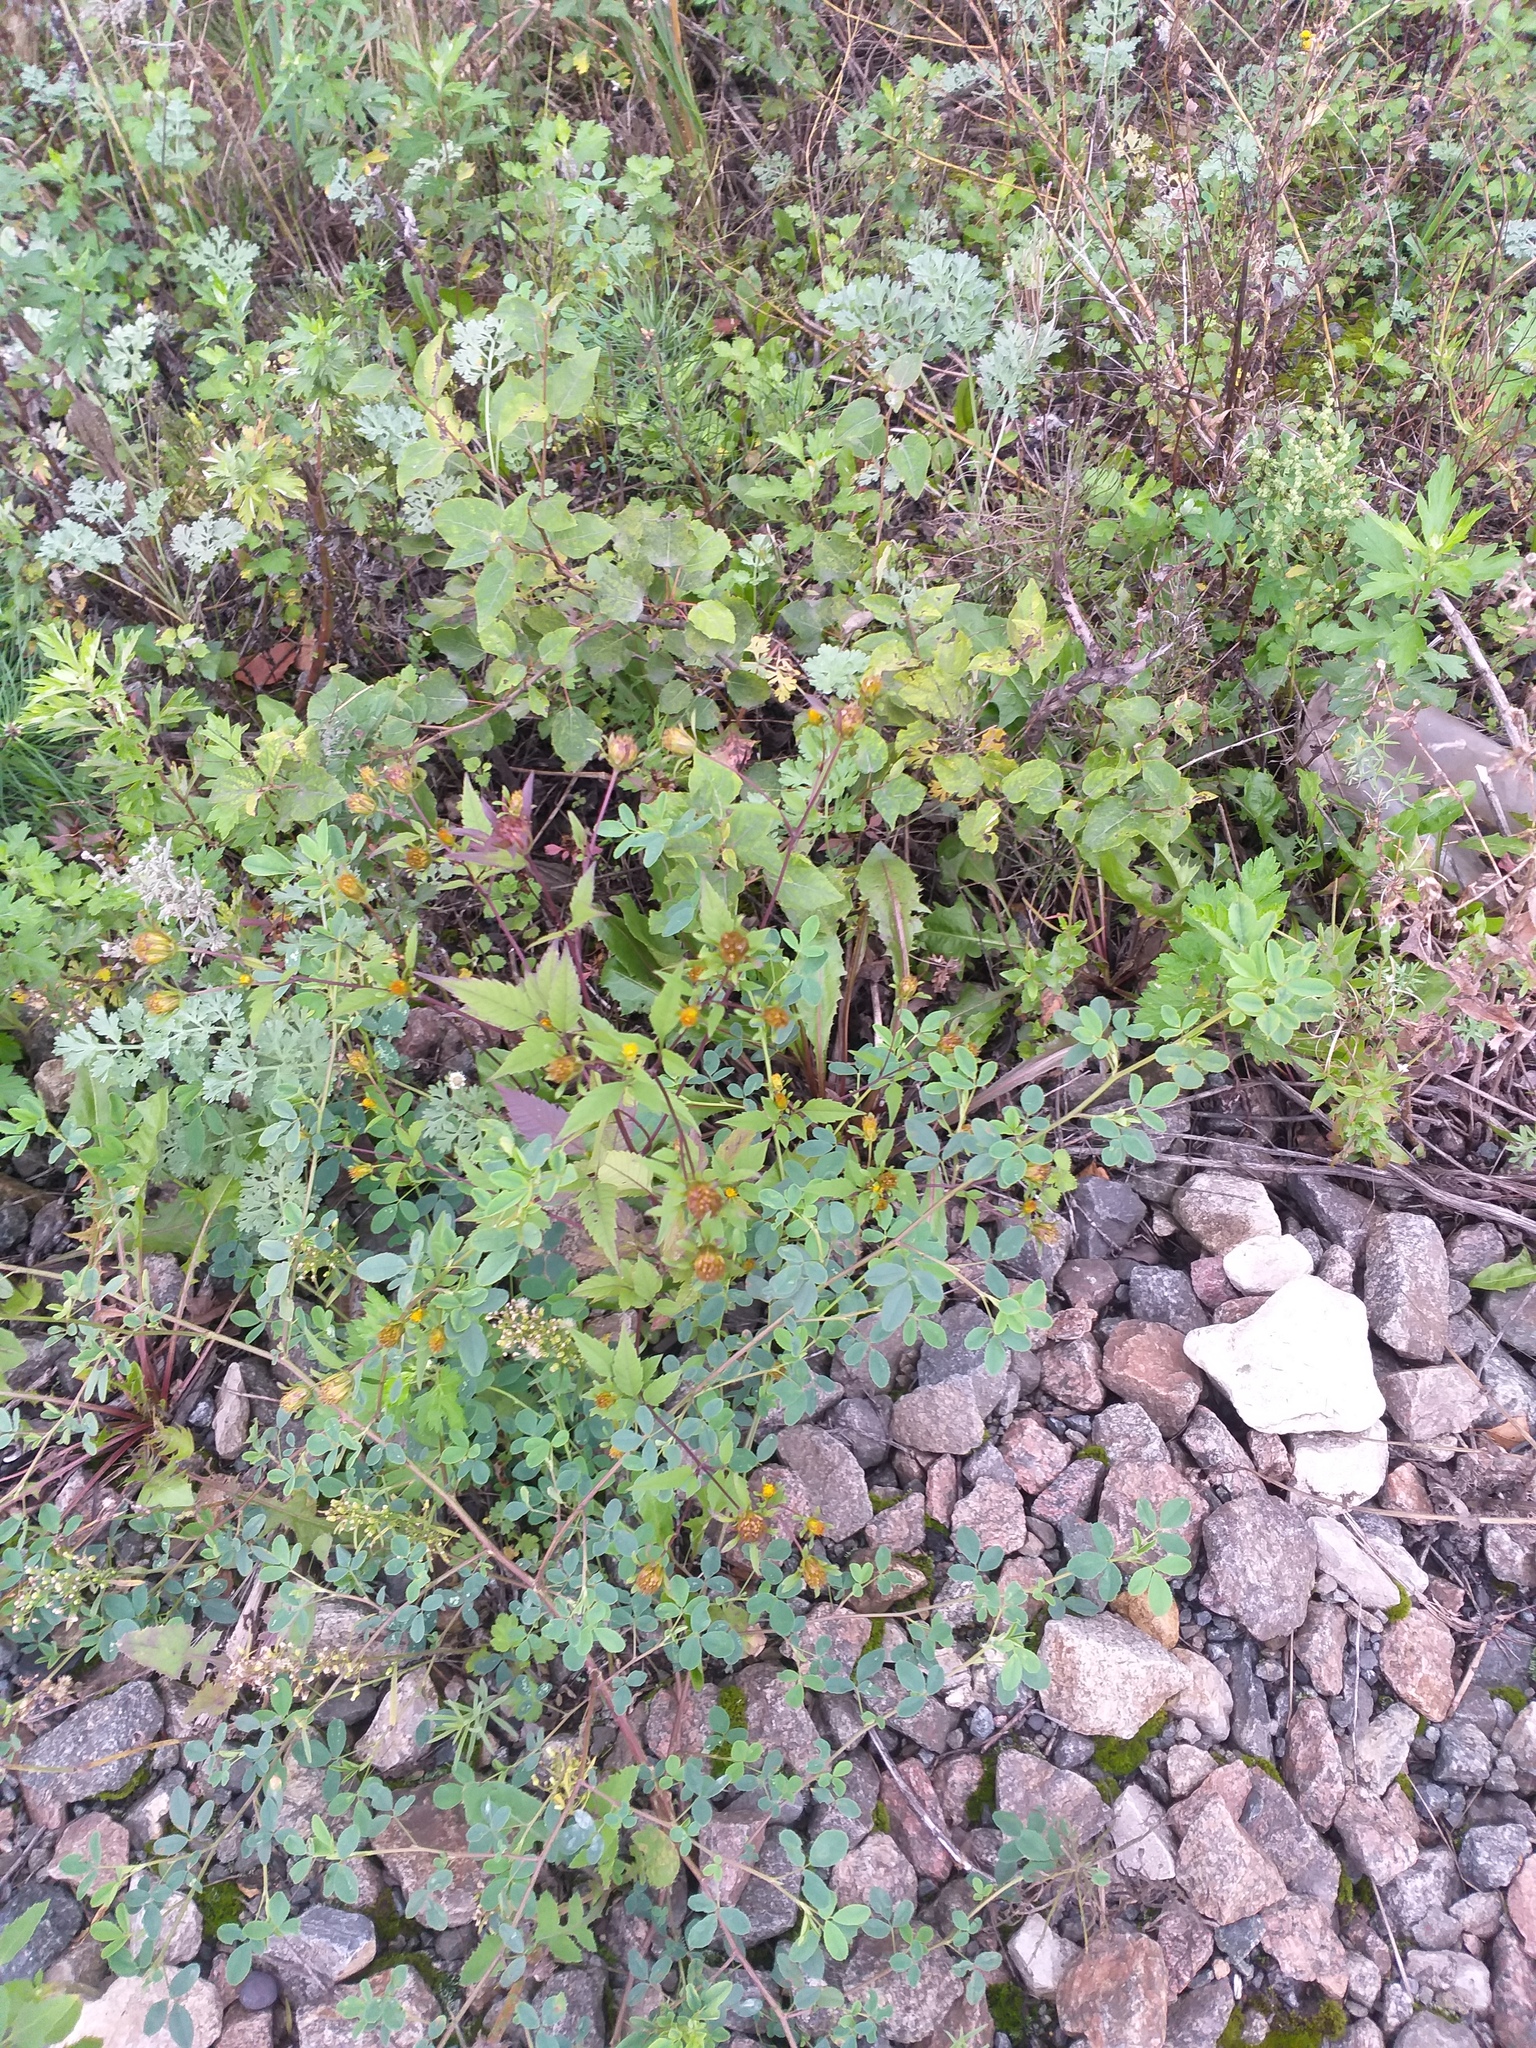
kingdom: Plantae
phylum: Tracheophyta
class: Magnoliopsida
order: Asterales
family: Asteraceae
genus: Bidens
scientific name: Bidens frondosa
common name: Beggarticks
